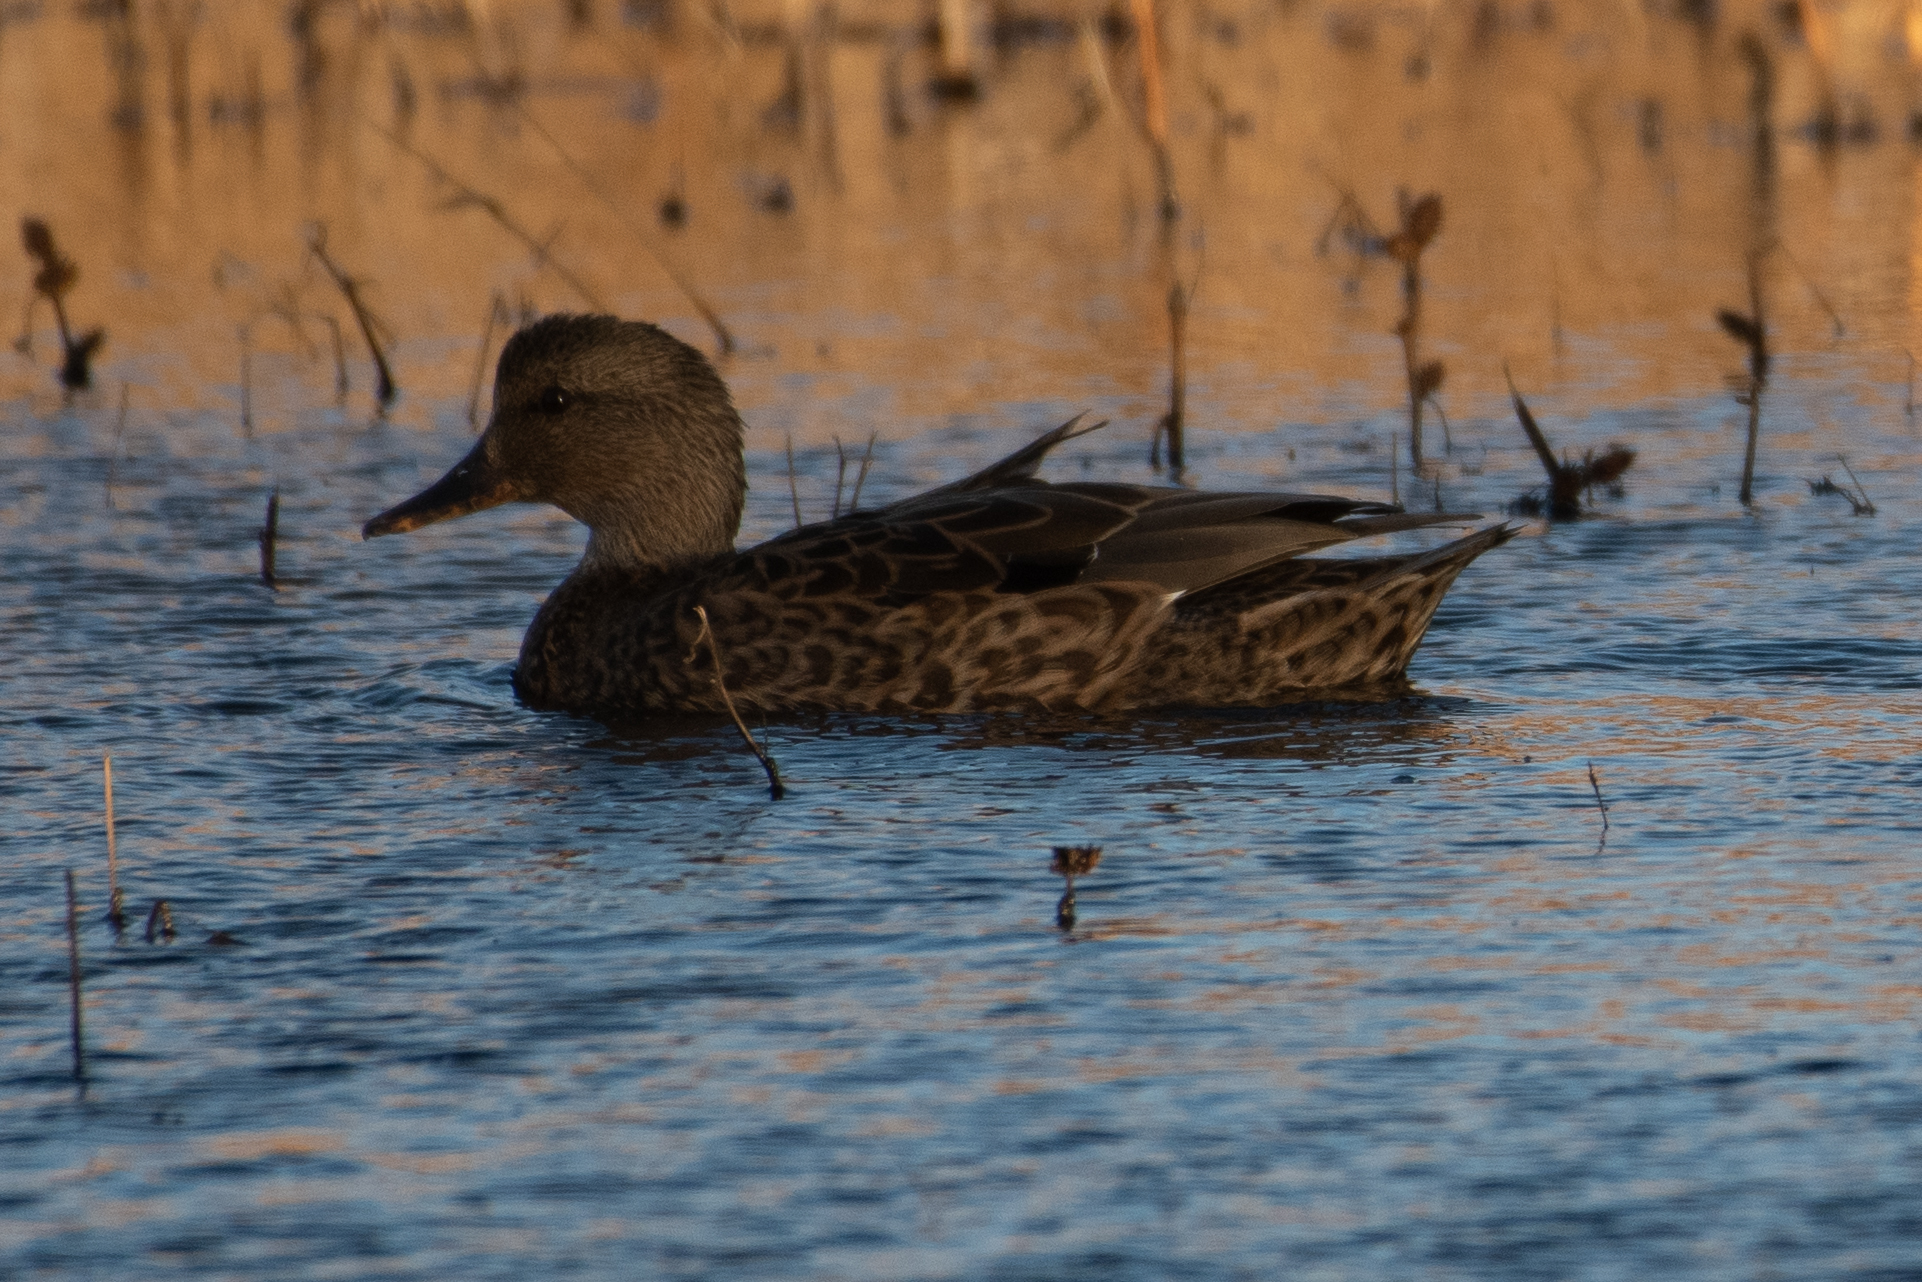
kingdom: Animalia
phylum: Chordata
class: Aves
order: Anseriformes
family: Anatidae
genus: Mareca
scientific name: Mareca strepera
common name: Gadwall
